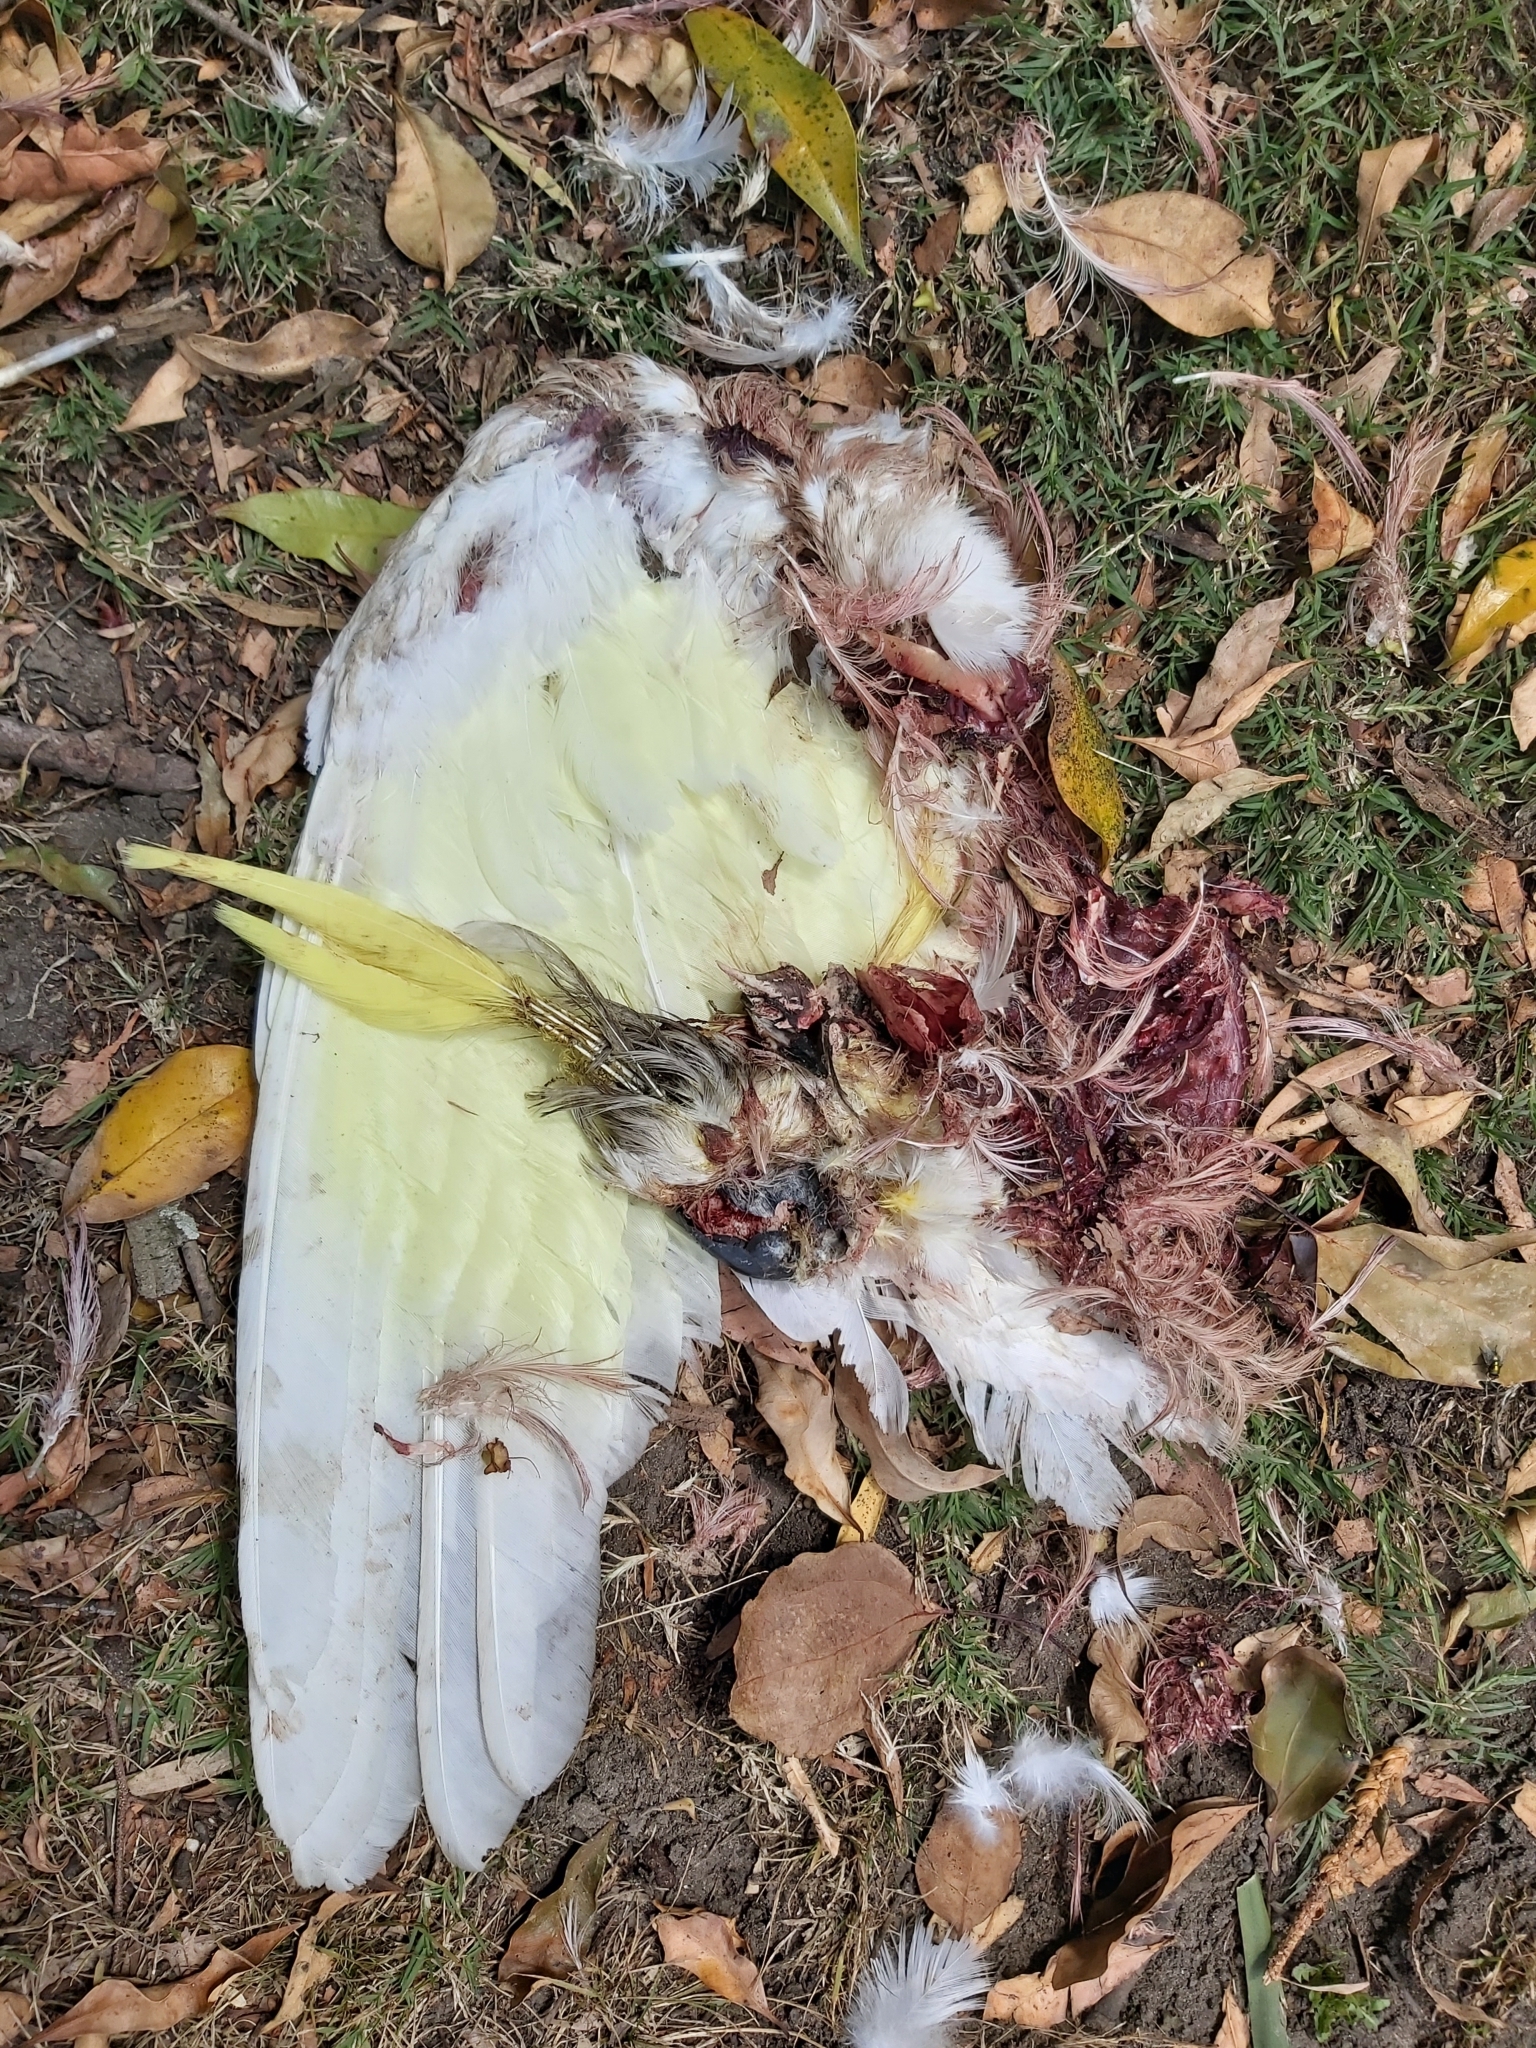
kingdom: Animalia
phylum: Chordata
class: Aves
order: Psittaciformes
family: Psittacidae
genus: Cacatua
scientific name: Cacatua galerita
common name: Sulphur-crested cockatoo
